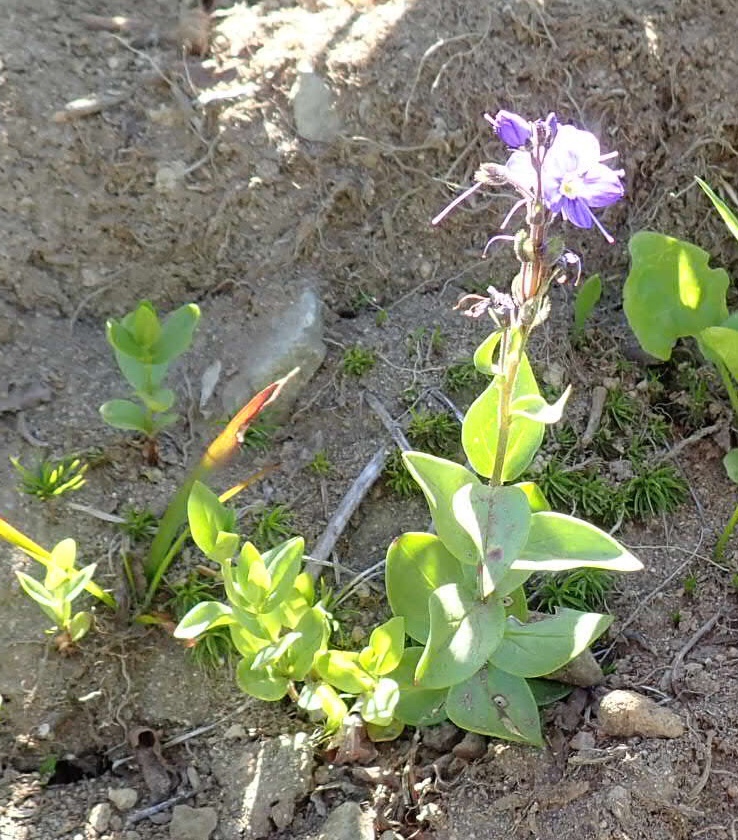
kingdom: Plantae
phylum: Tracheophyta
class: Magnoliopsida
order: Lamiales
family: Plantaginaceae
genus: Veronica
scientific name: Veronica cusickii
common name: Cusick's speedwell
